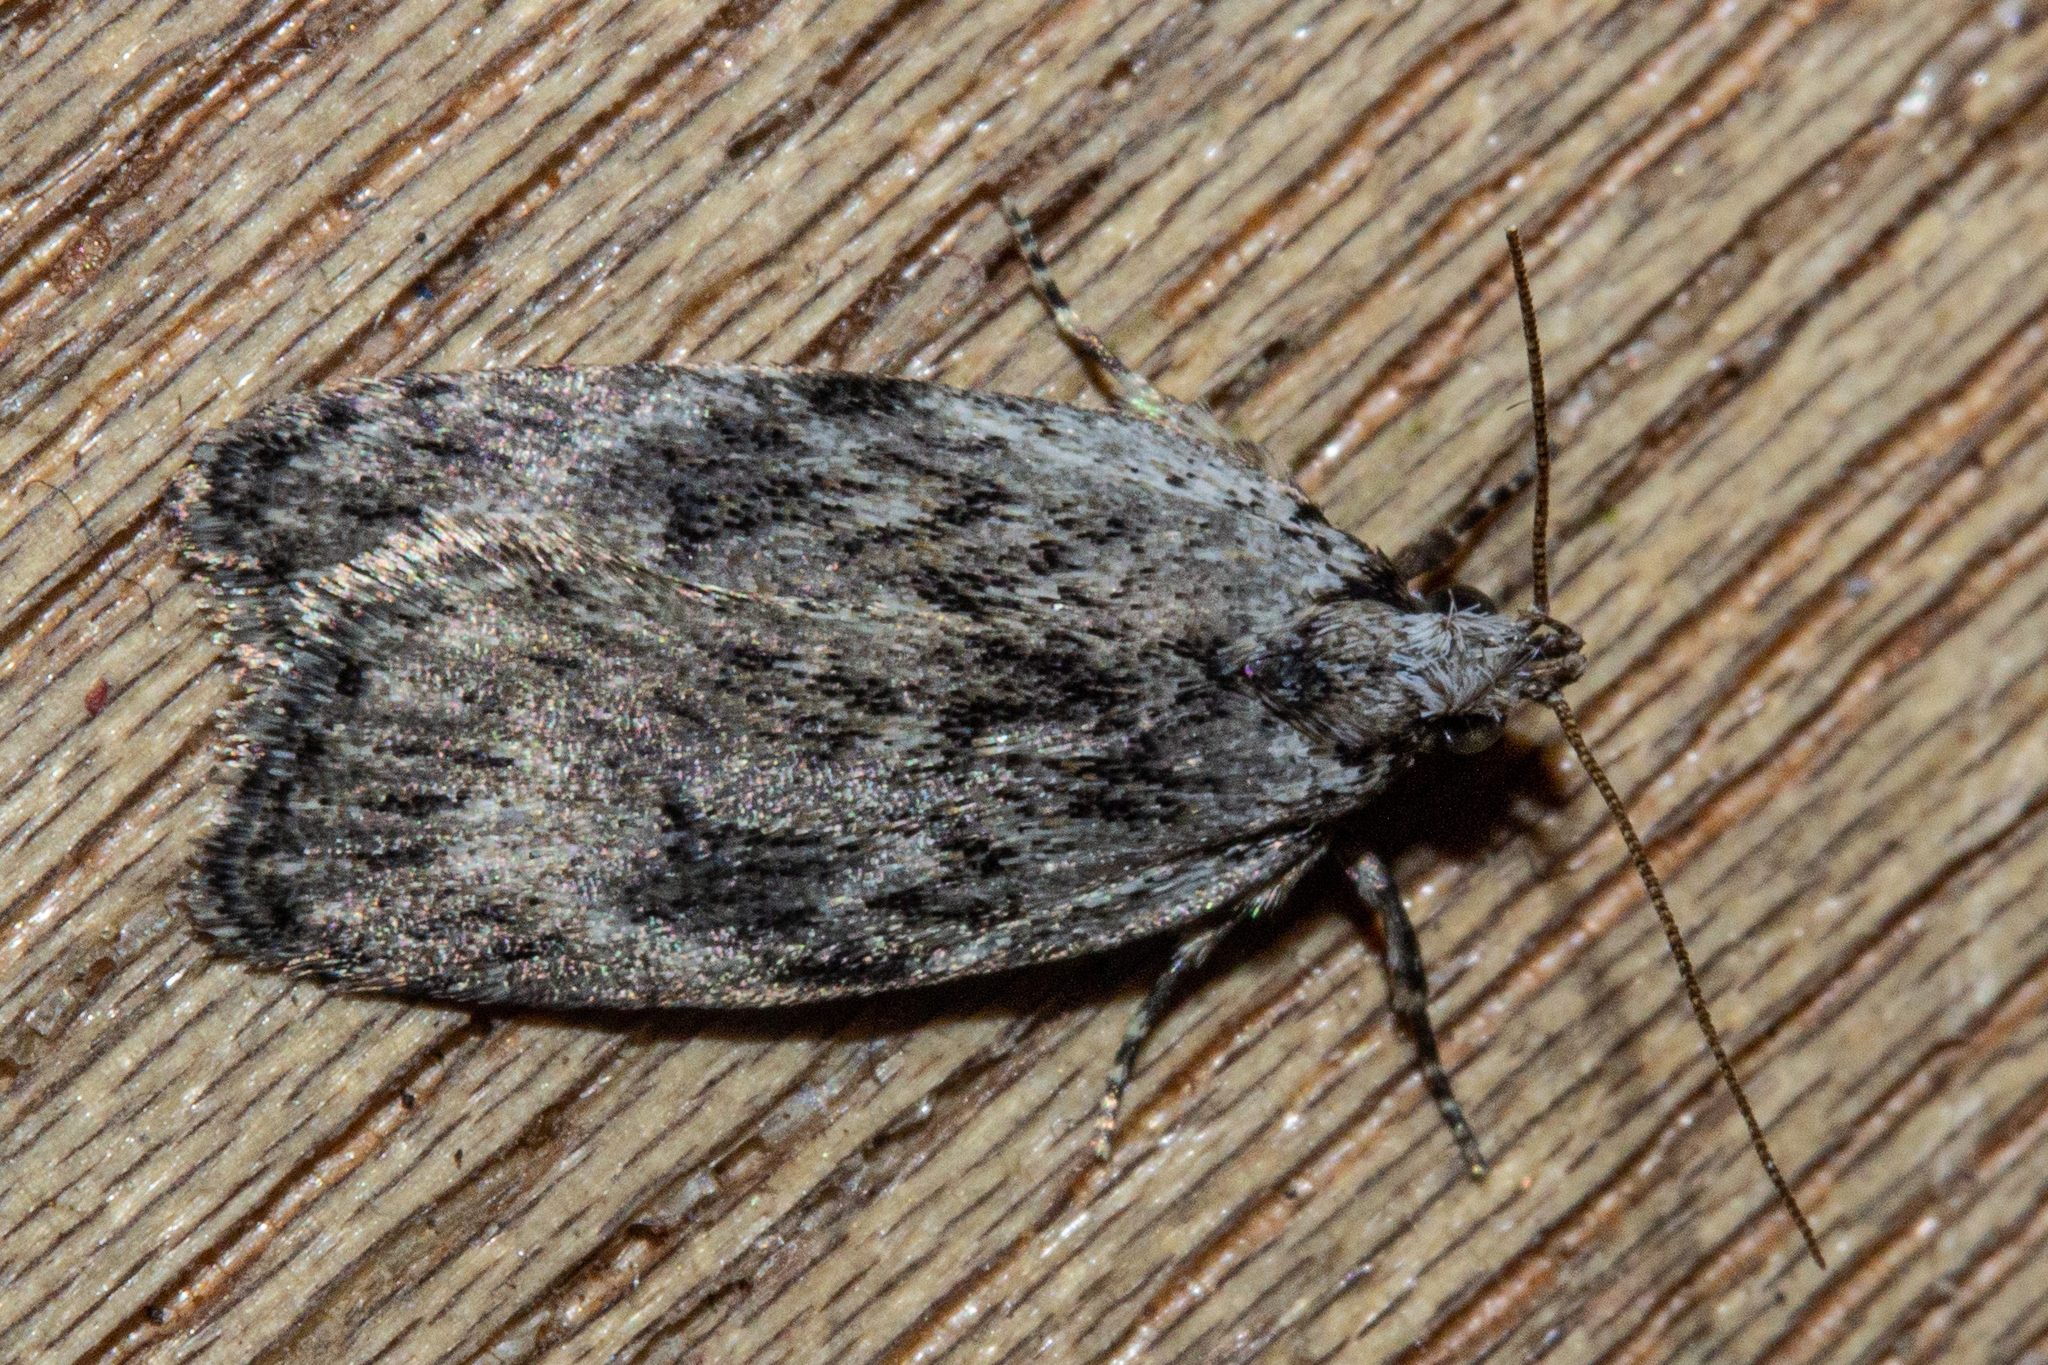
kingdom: Animalia
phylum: Arthropoda
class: Insecta
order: Lepidoptera
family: Depressariidae
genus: Phaeosaces
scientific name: Phaeosaces compsotypa
